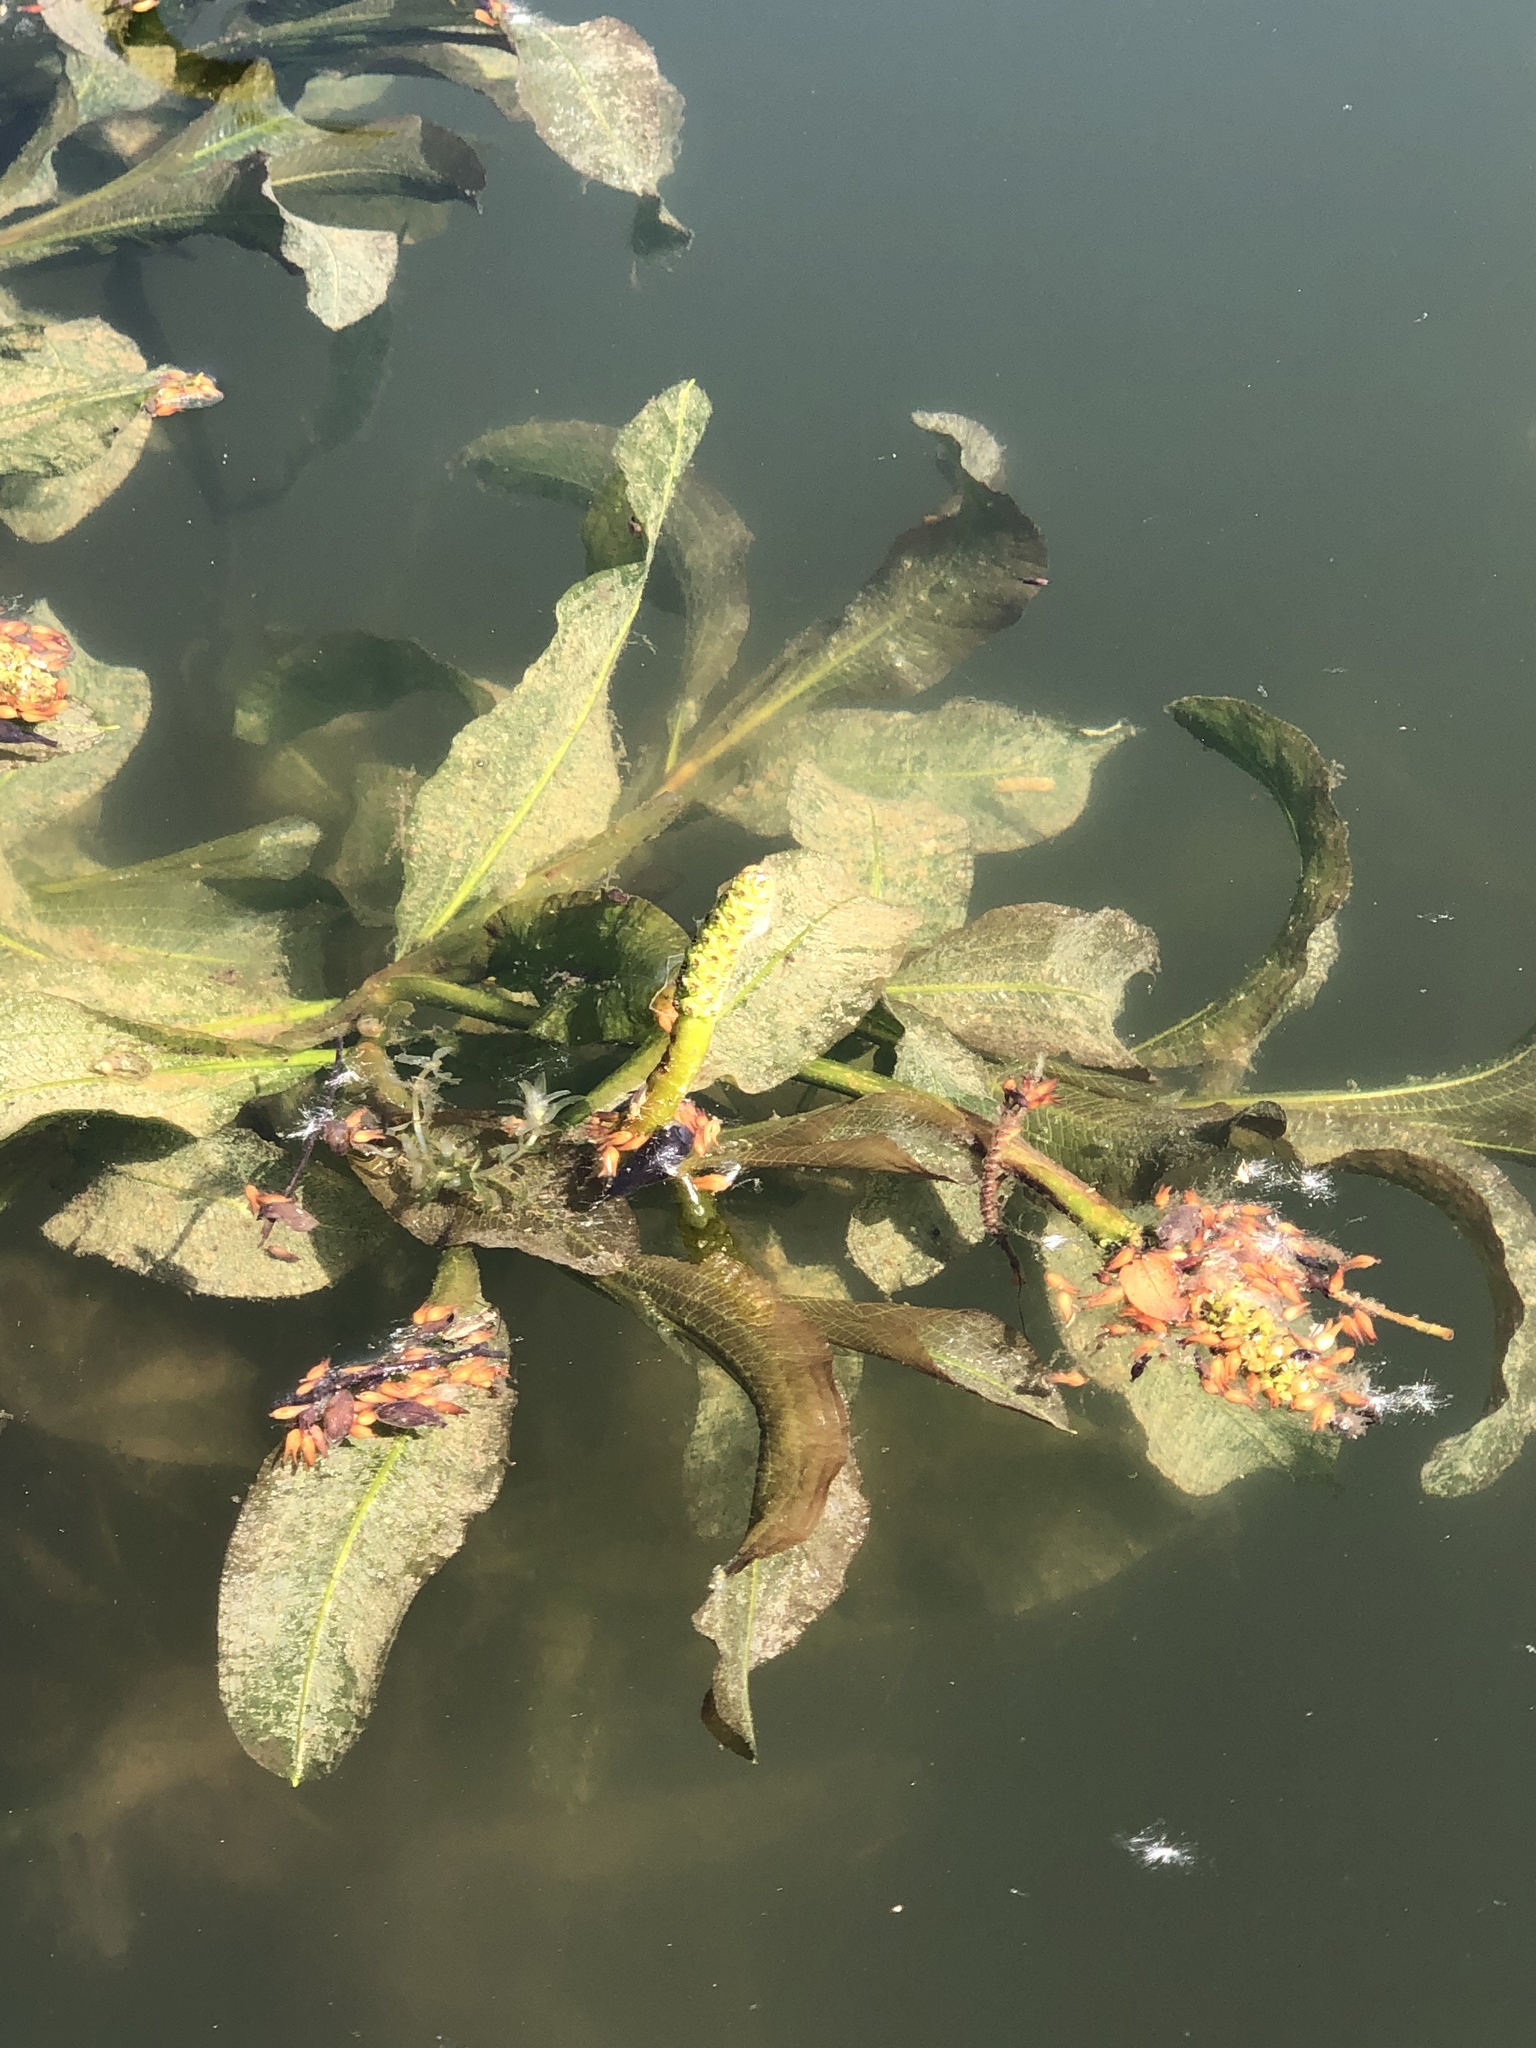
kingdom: Plantae
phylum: Tracheophyta
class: Liliopsida
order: Alismatales
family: Potamogetonaceae
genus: Potamogeton
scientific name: Potamogeton lucens
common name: Shining pondweed
